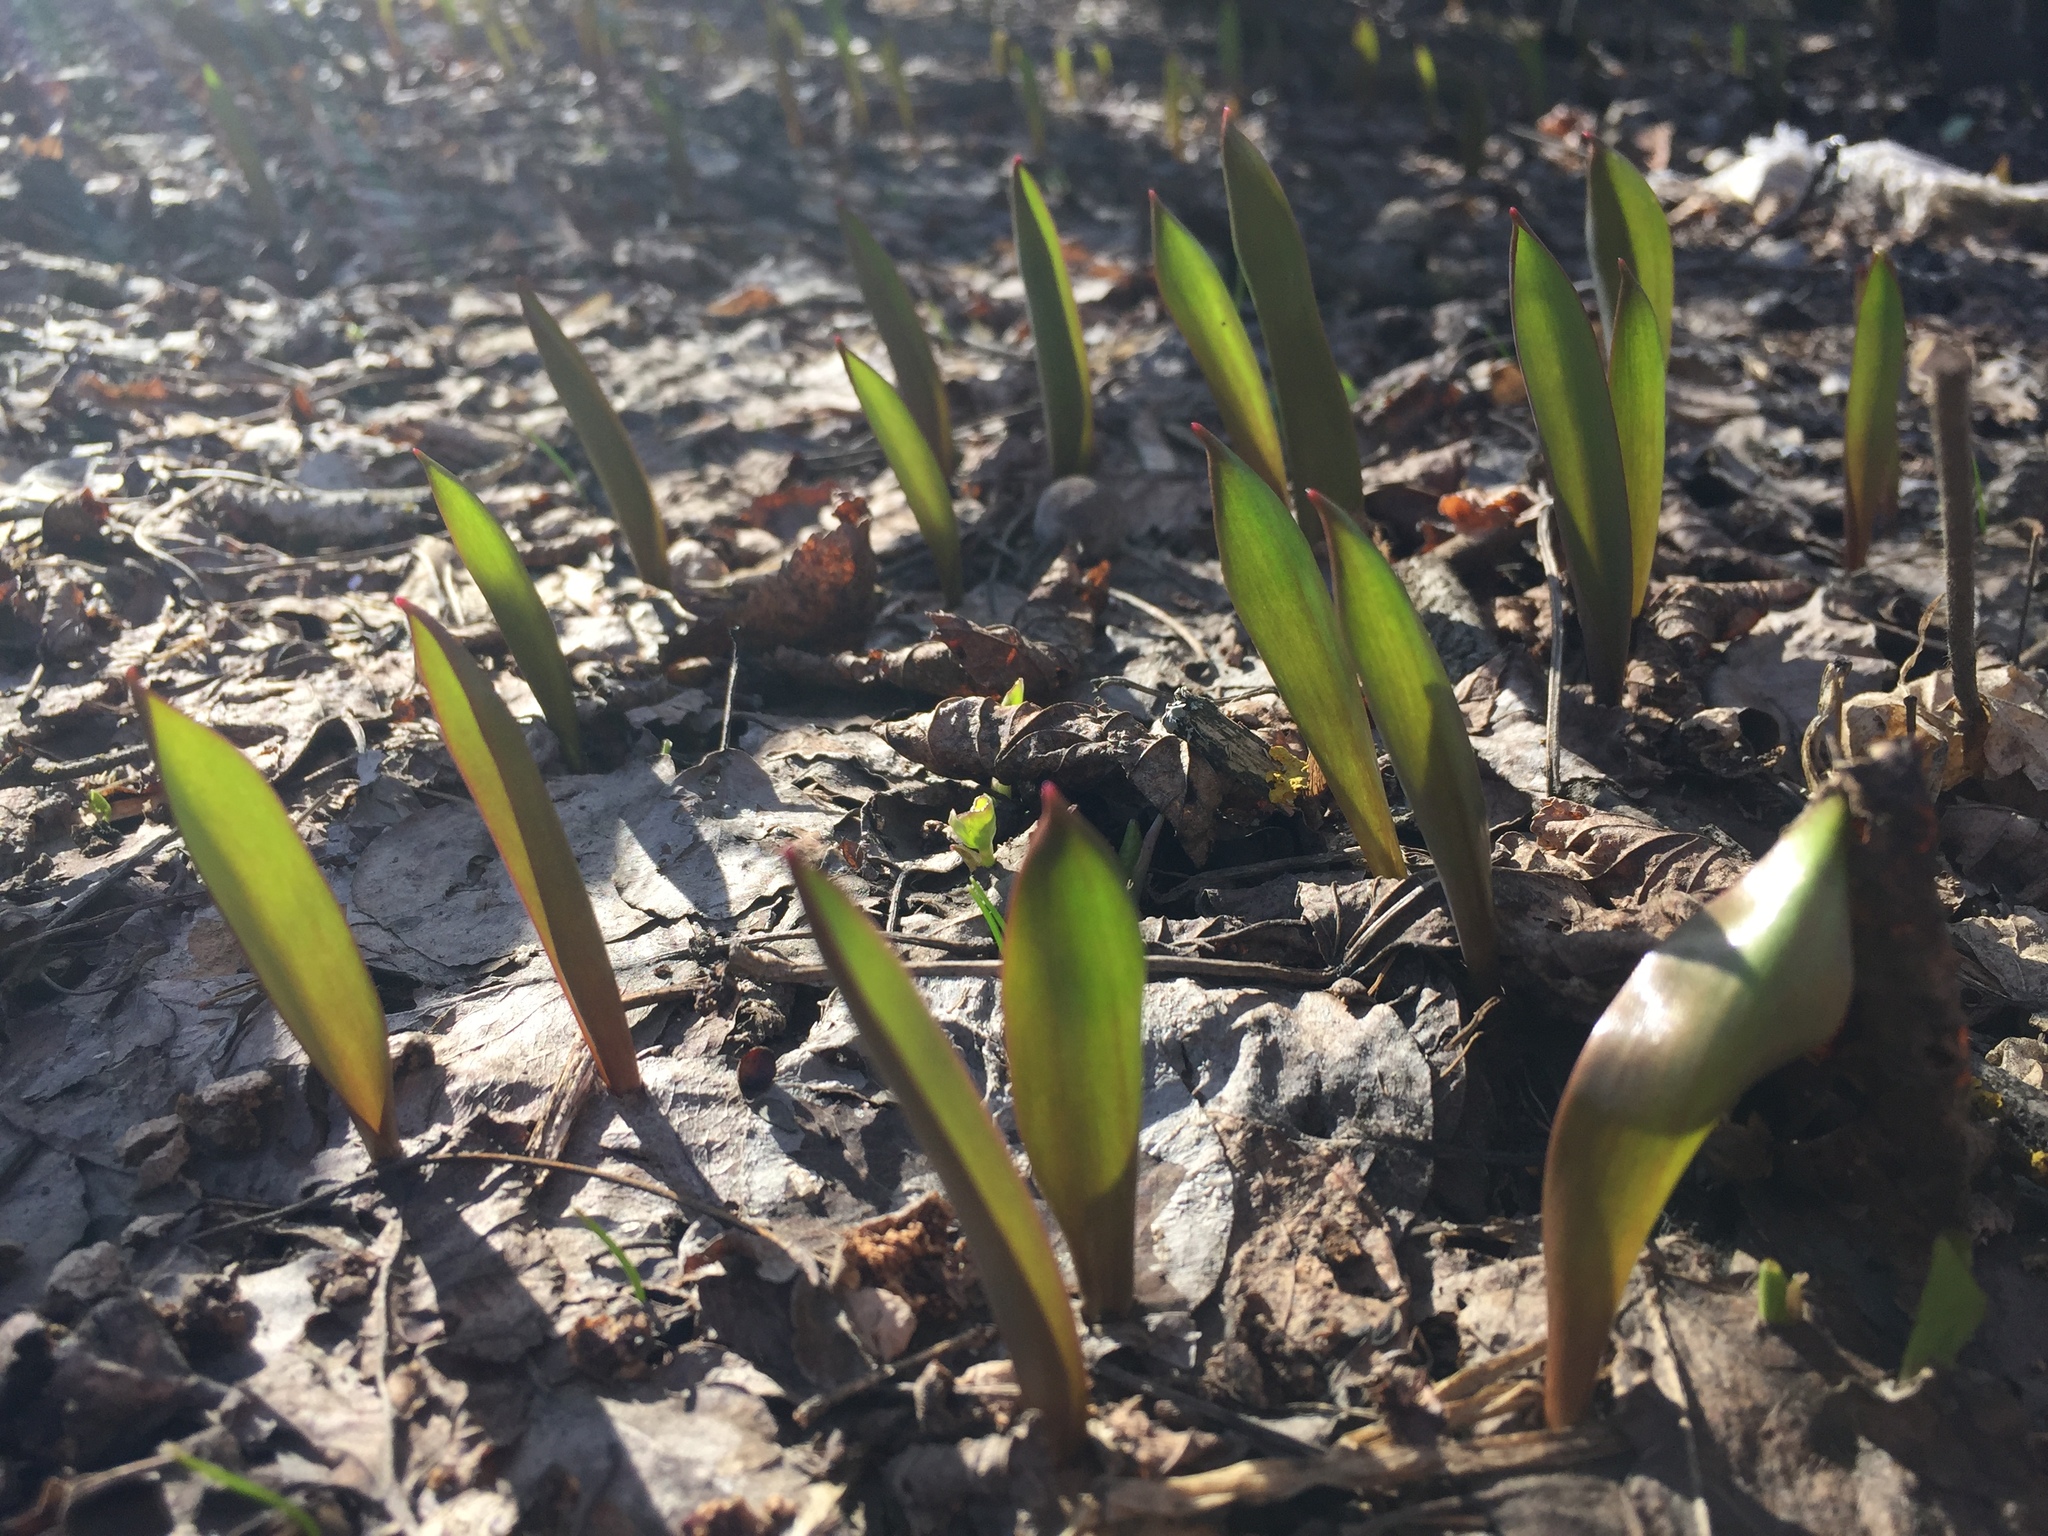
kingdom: Plantae
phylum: Tracheophyta
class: Liliopsida
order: Liliales
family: Liliaceae
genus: Tulipa
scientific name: Tulipa sylvestris
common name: Wild tulip
